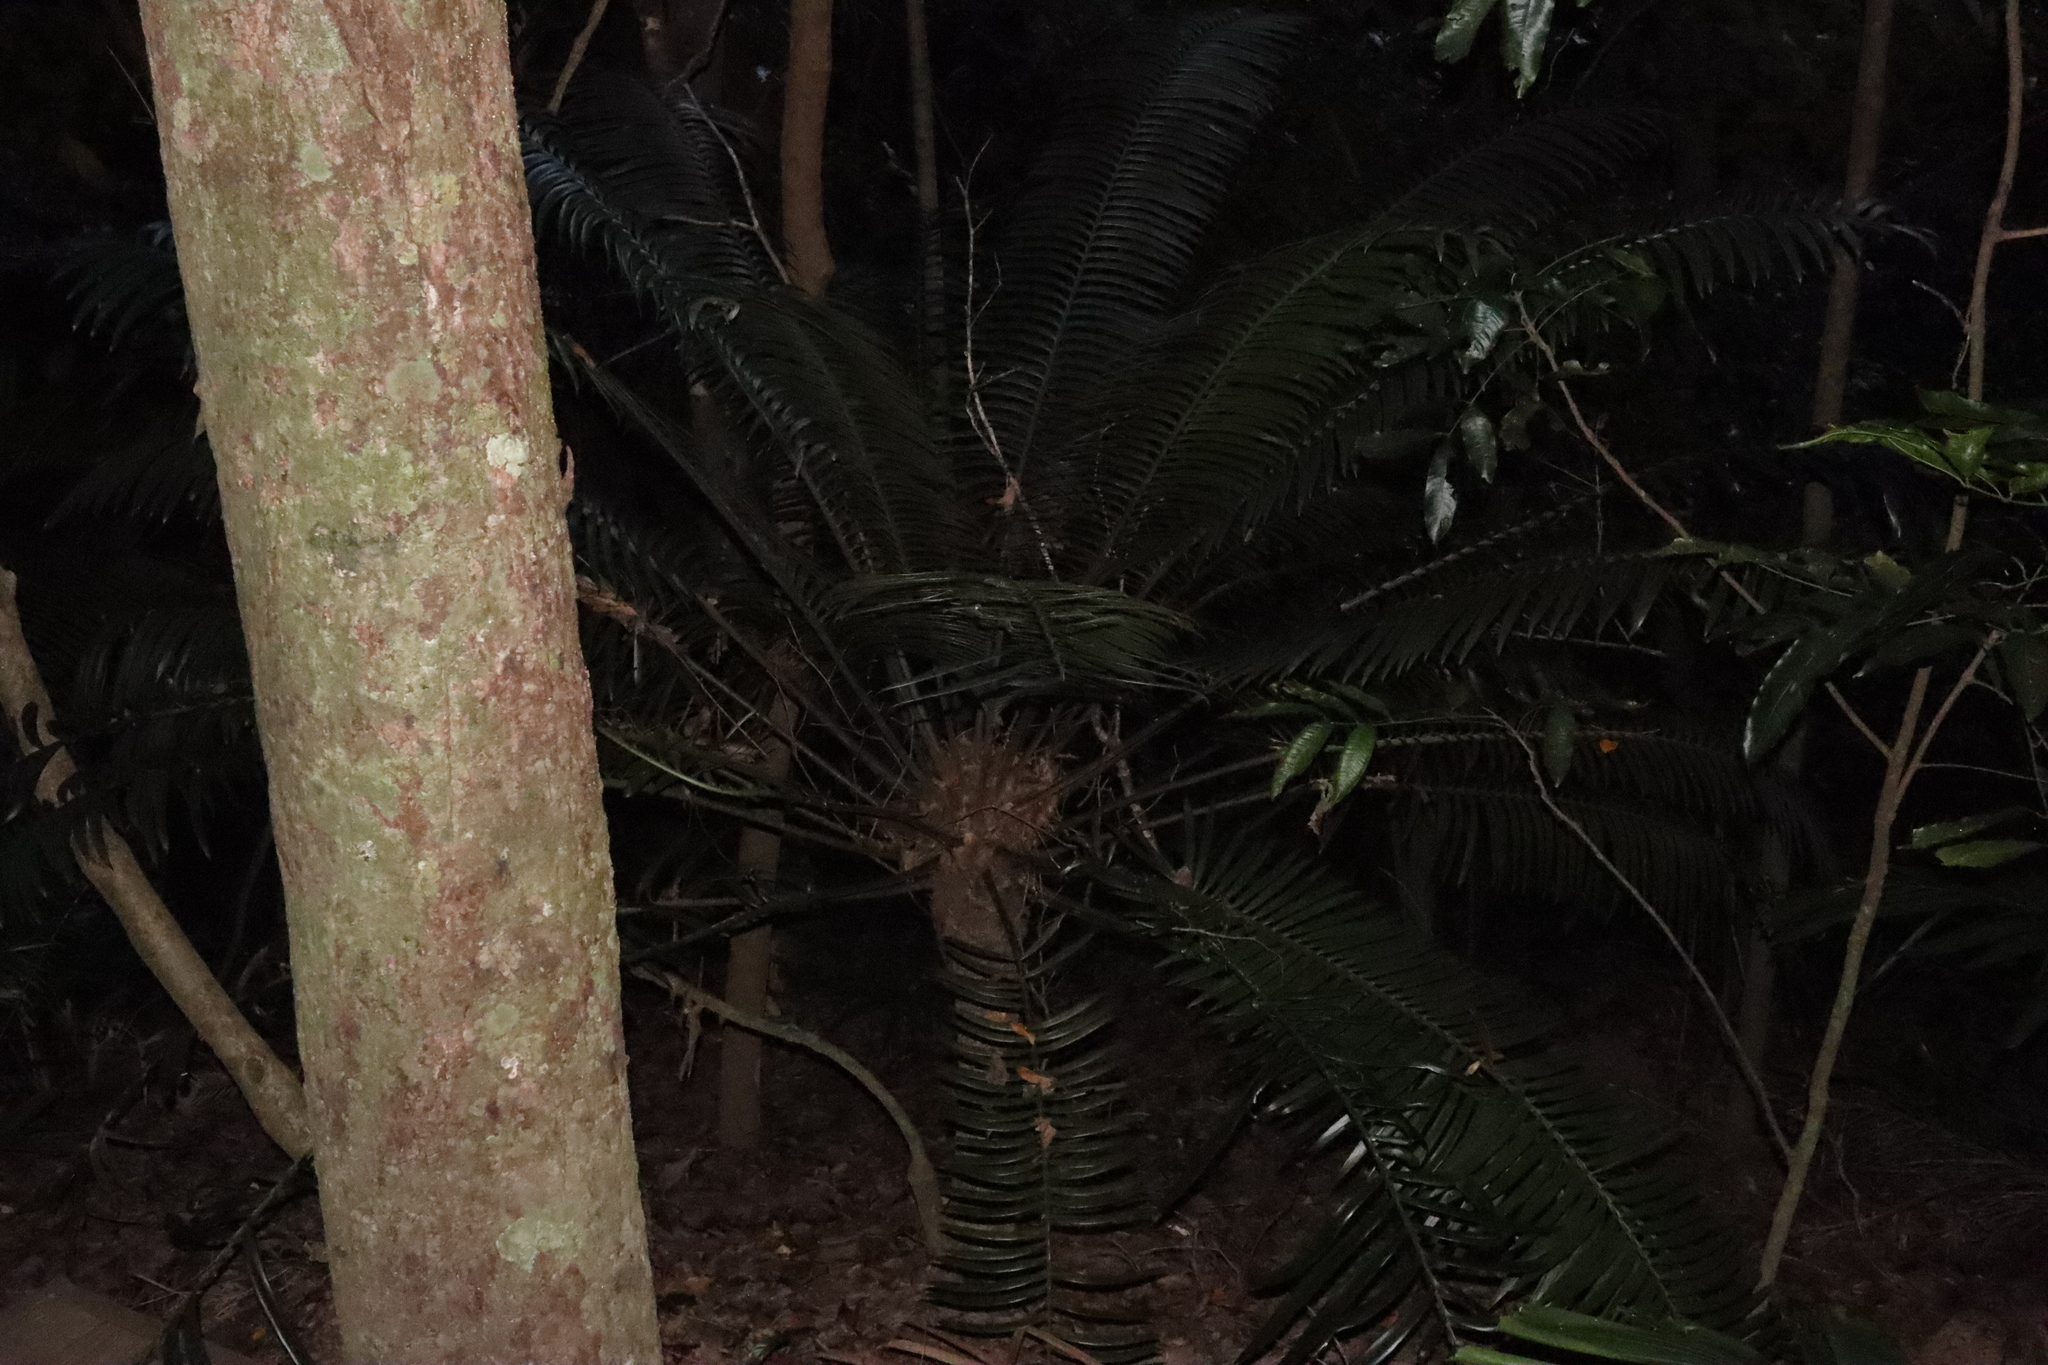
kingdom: Plantae
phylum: Tracheophyta
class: Cycadopsida
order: Cycadales
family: Zamiaceae
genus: Lepidozamia
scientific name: Lepidozamia hopei
